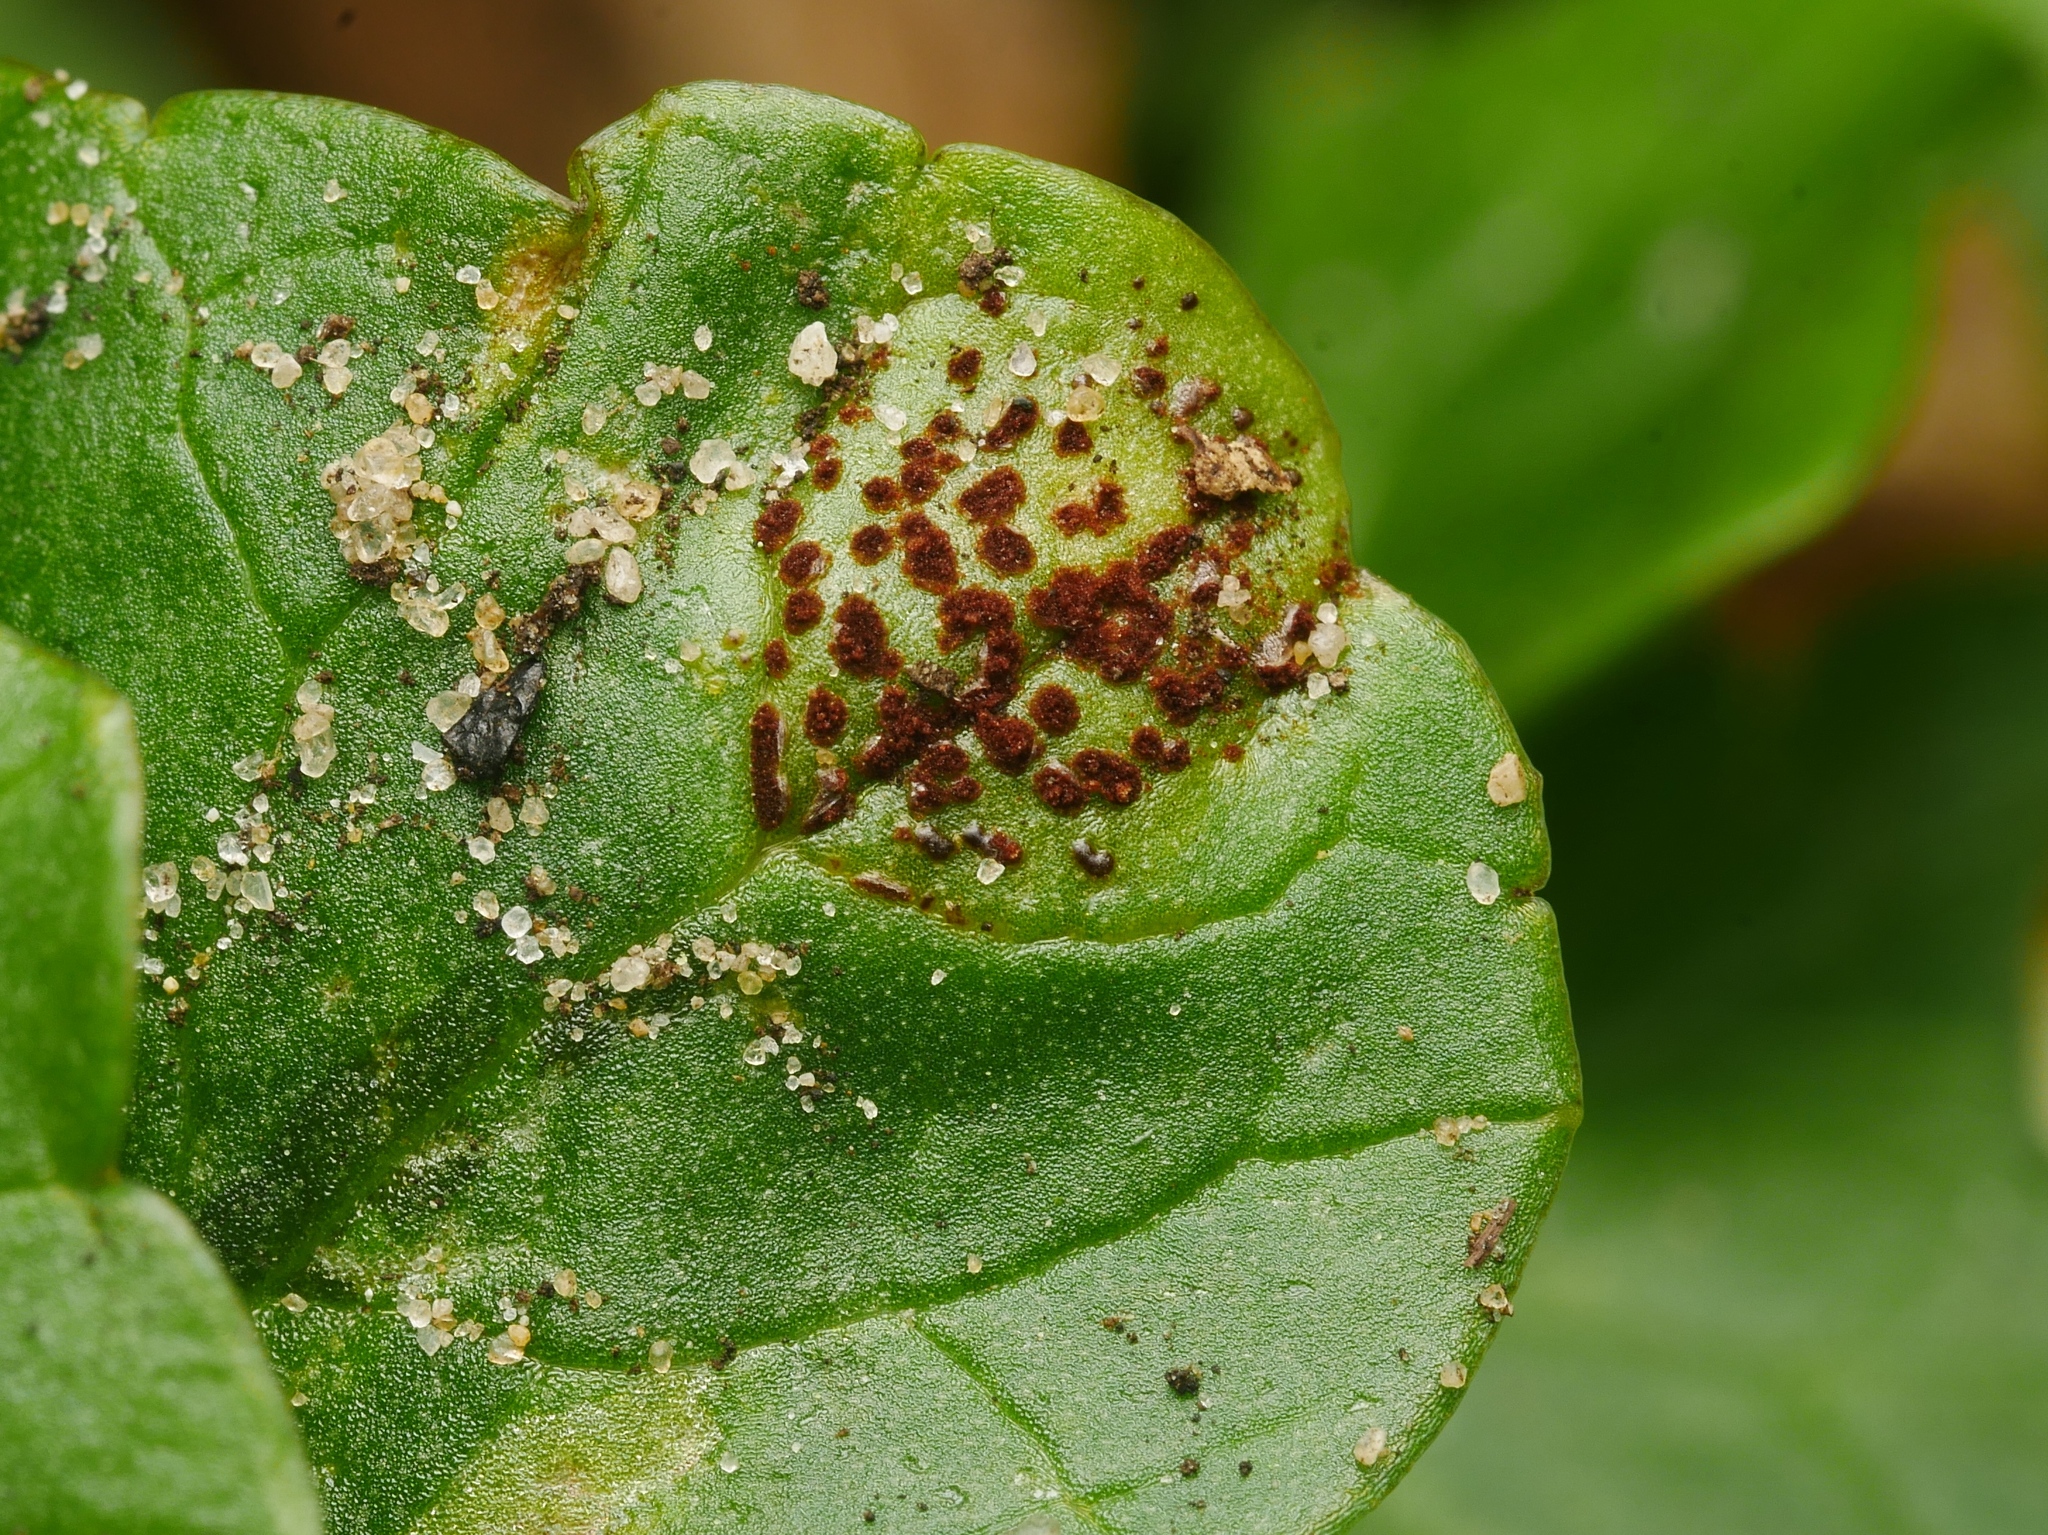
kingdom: Fungi
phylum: Basidiomycota
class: Pucciniomycetes
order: Pucciniales
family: Pucciniaceae
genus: Uromyces
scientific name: Uromyces ficariae
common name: Bitter chocolate rust
